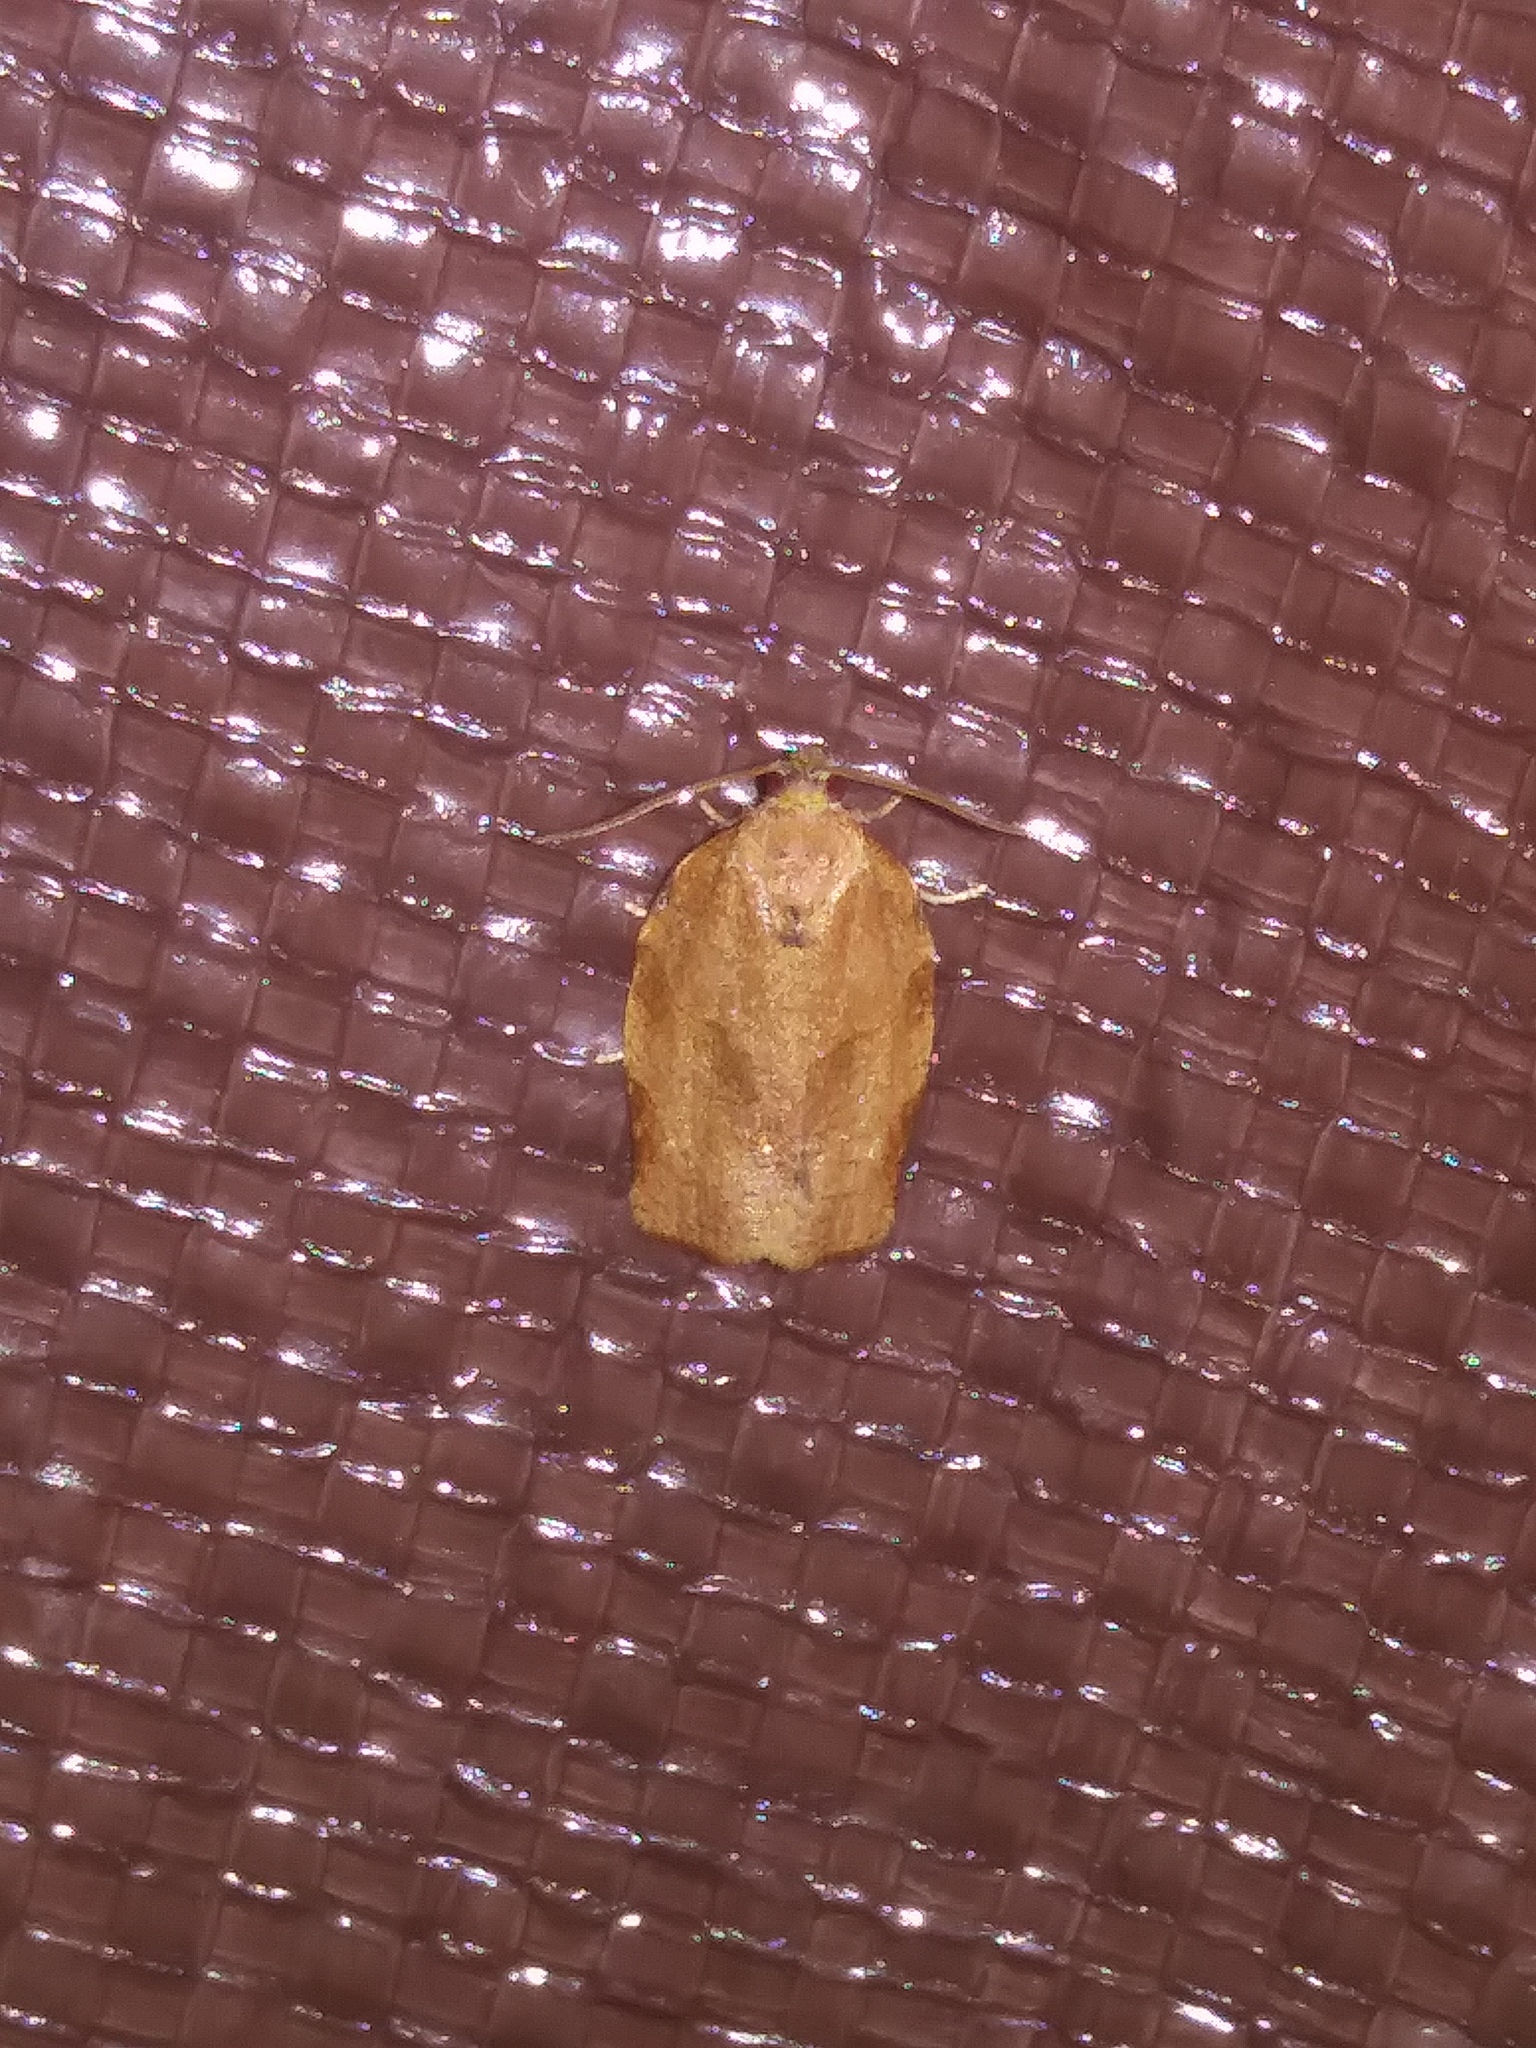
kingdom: Animalia
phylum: Arthropoda
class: Insecta
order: Lepidoptera
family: Tortricidae
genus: Choristoneura
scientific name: Choristoneura rosaceana
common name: Oblique-banded leafroller moth
